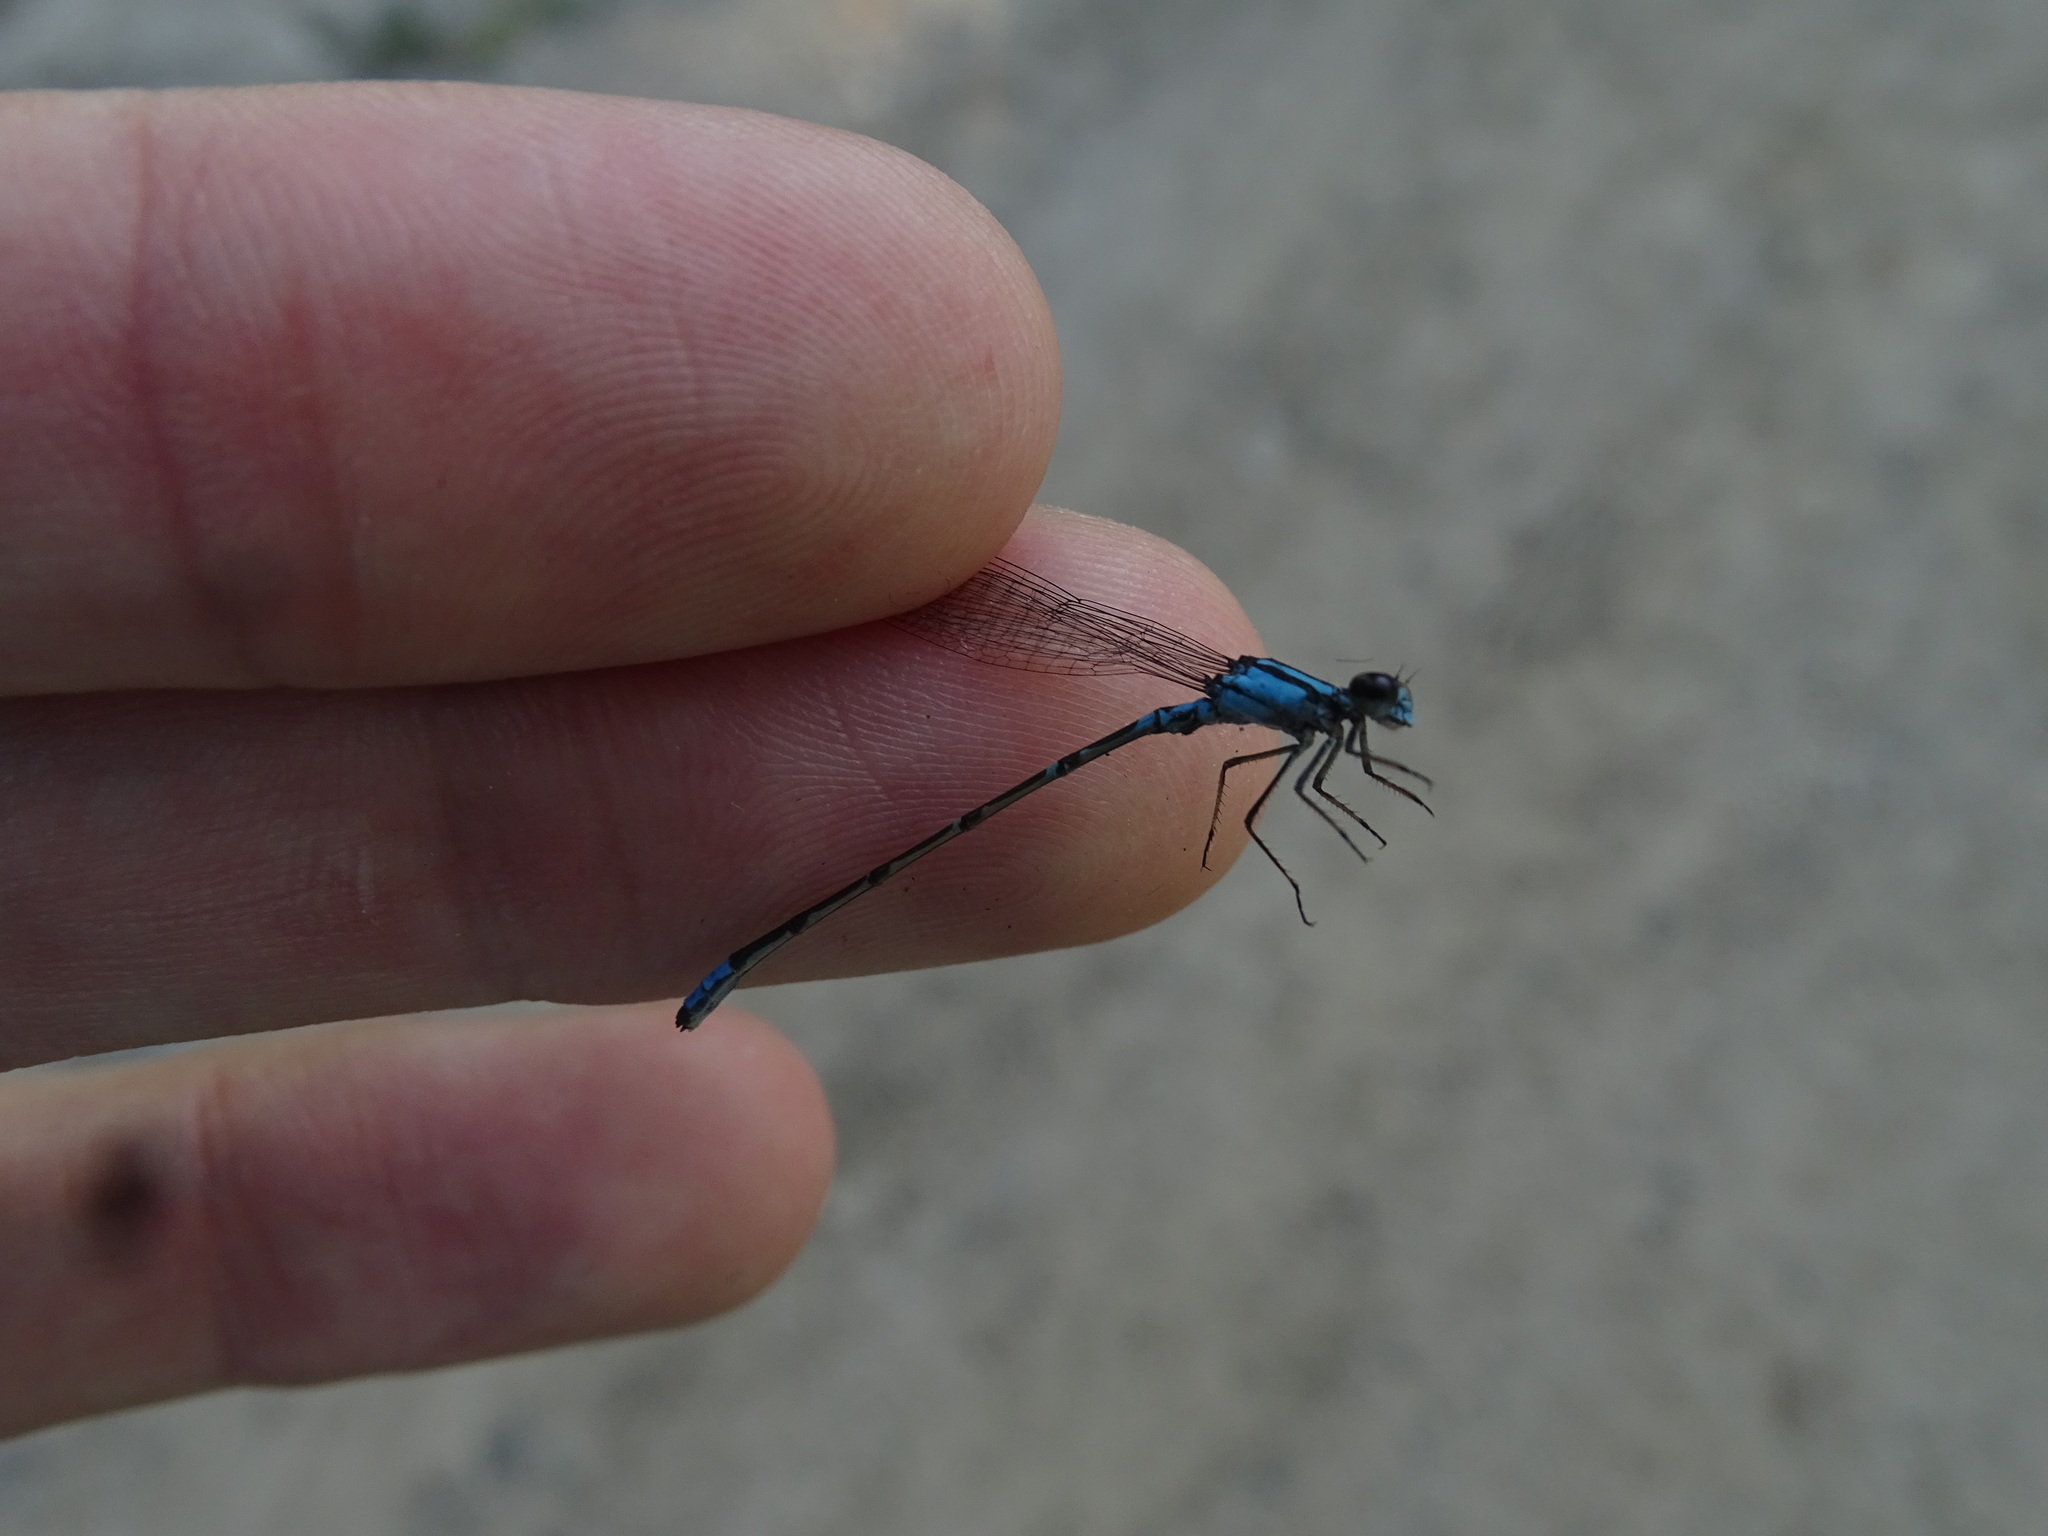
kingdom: Animalia
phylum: Arthropoda
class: Insecta
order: Odonata
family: Coenagrionidae
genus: Enallagma
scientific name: Enallagma geminatum
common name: Skimming bluet
